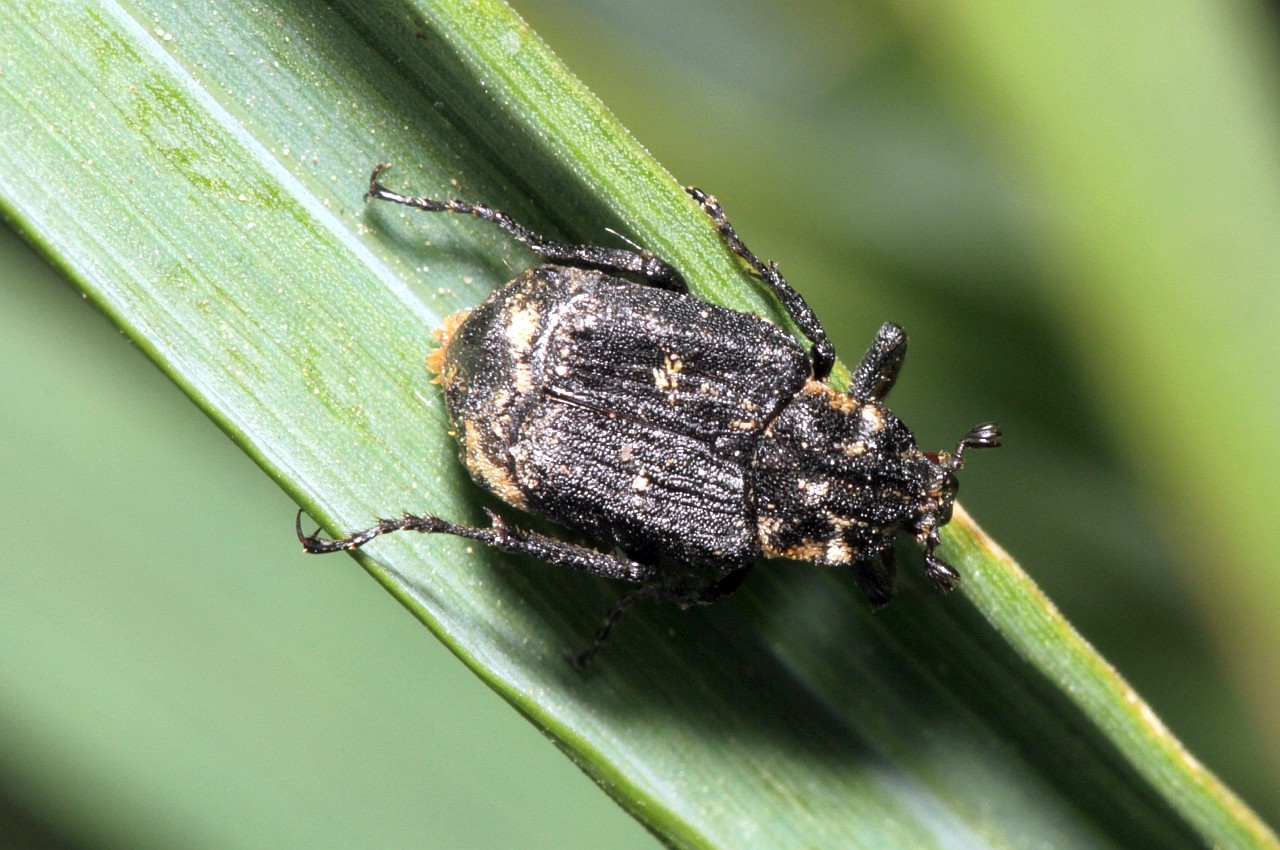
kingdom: Animalia
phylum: Arthropoda
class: Insecta
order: Coleoptera
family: Scarabaeidae
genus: Valgus
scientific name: Valgus hemipterus
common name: Bug flower chafer
